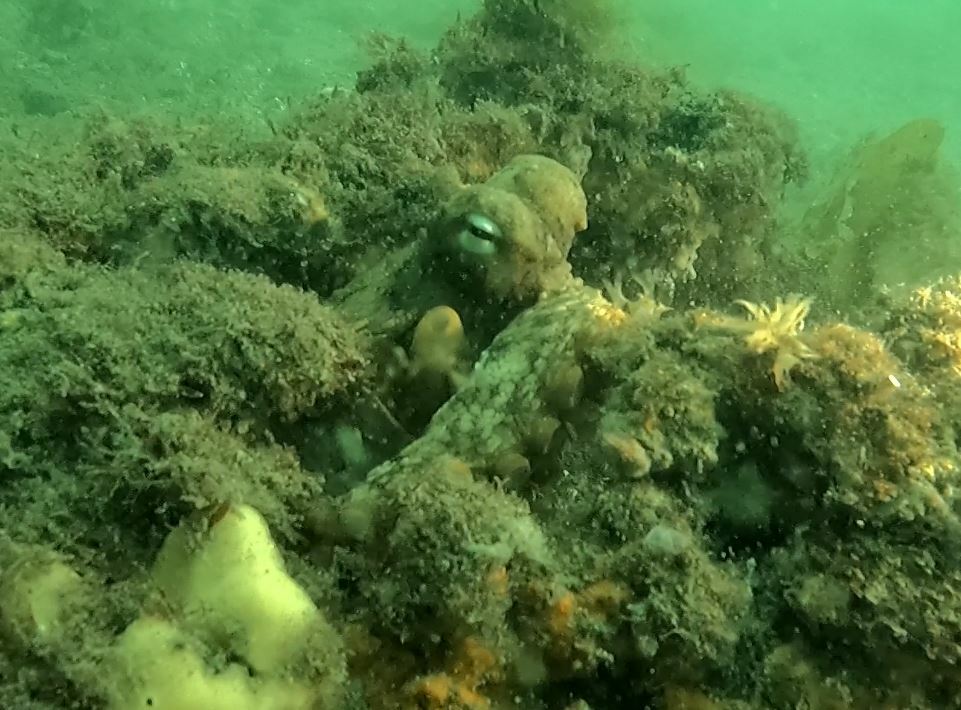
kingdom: Animalia
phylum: Mollusca
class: Cephalopoda
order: Octopoda
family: Octopodidae
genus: Octopus
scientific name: Octopus tetricus
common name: Sydney octopus
